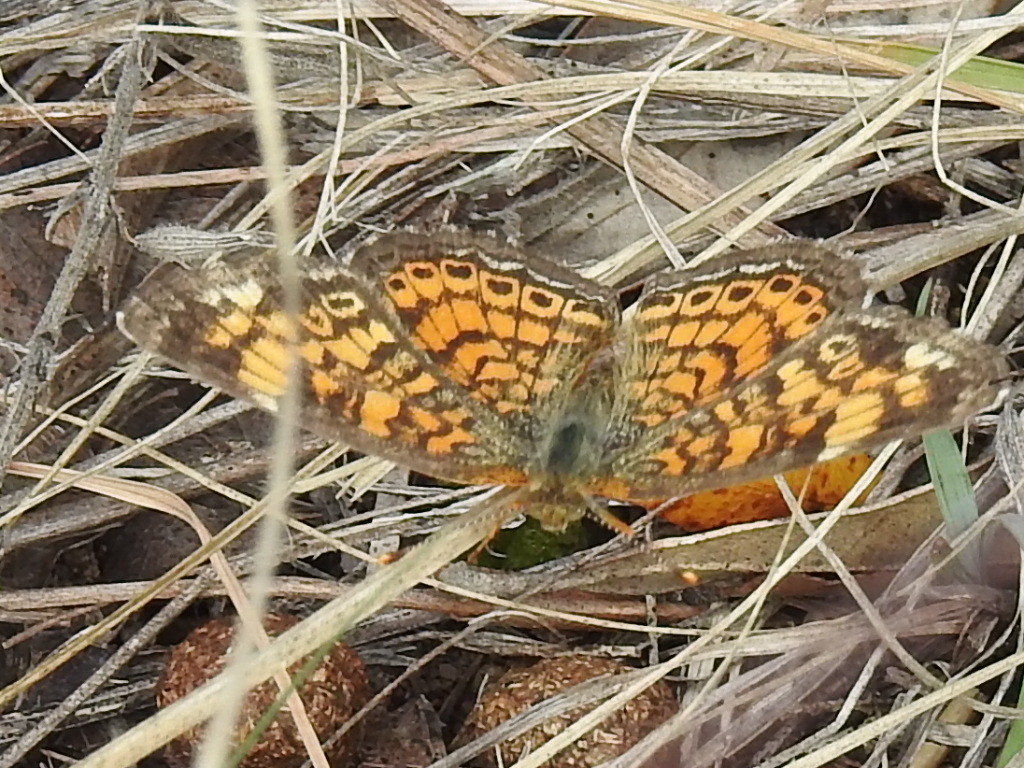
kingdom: Animalia
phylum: Arthropoda
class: Insecta
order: Lepidoptera
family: Nymphalidae
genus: Phyciodes
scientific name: Phyciodes tharos
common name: Pearl crescent
